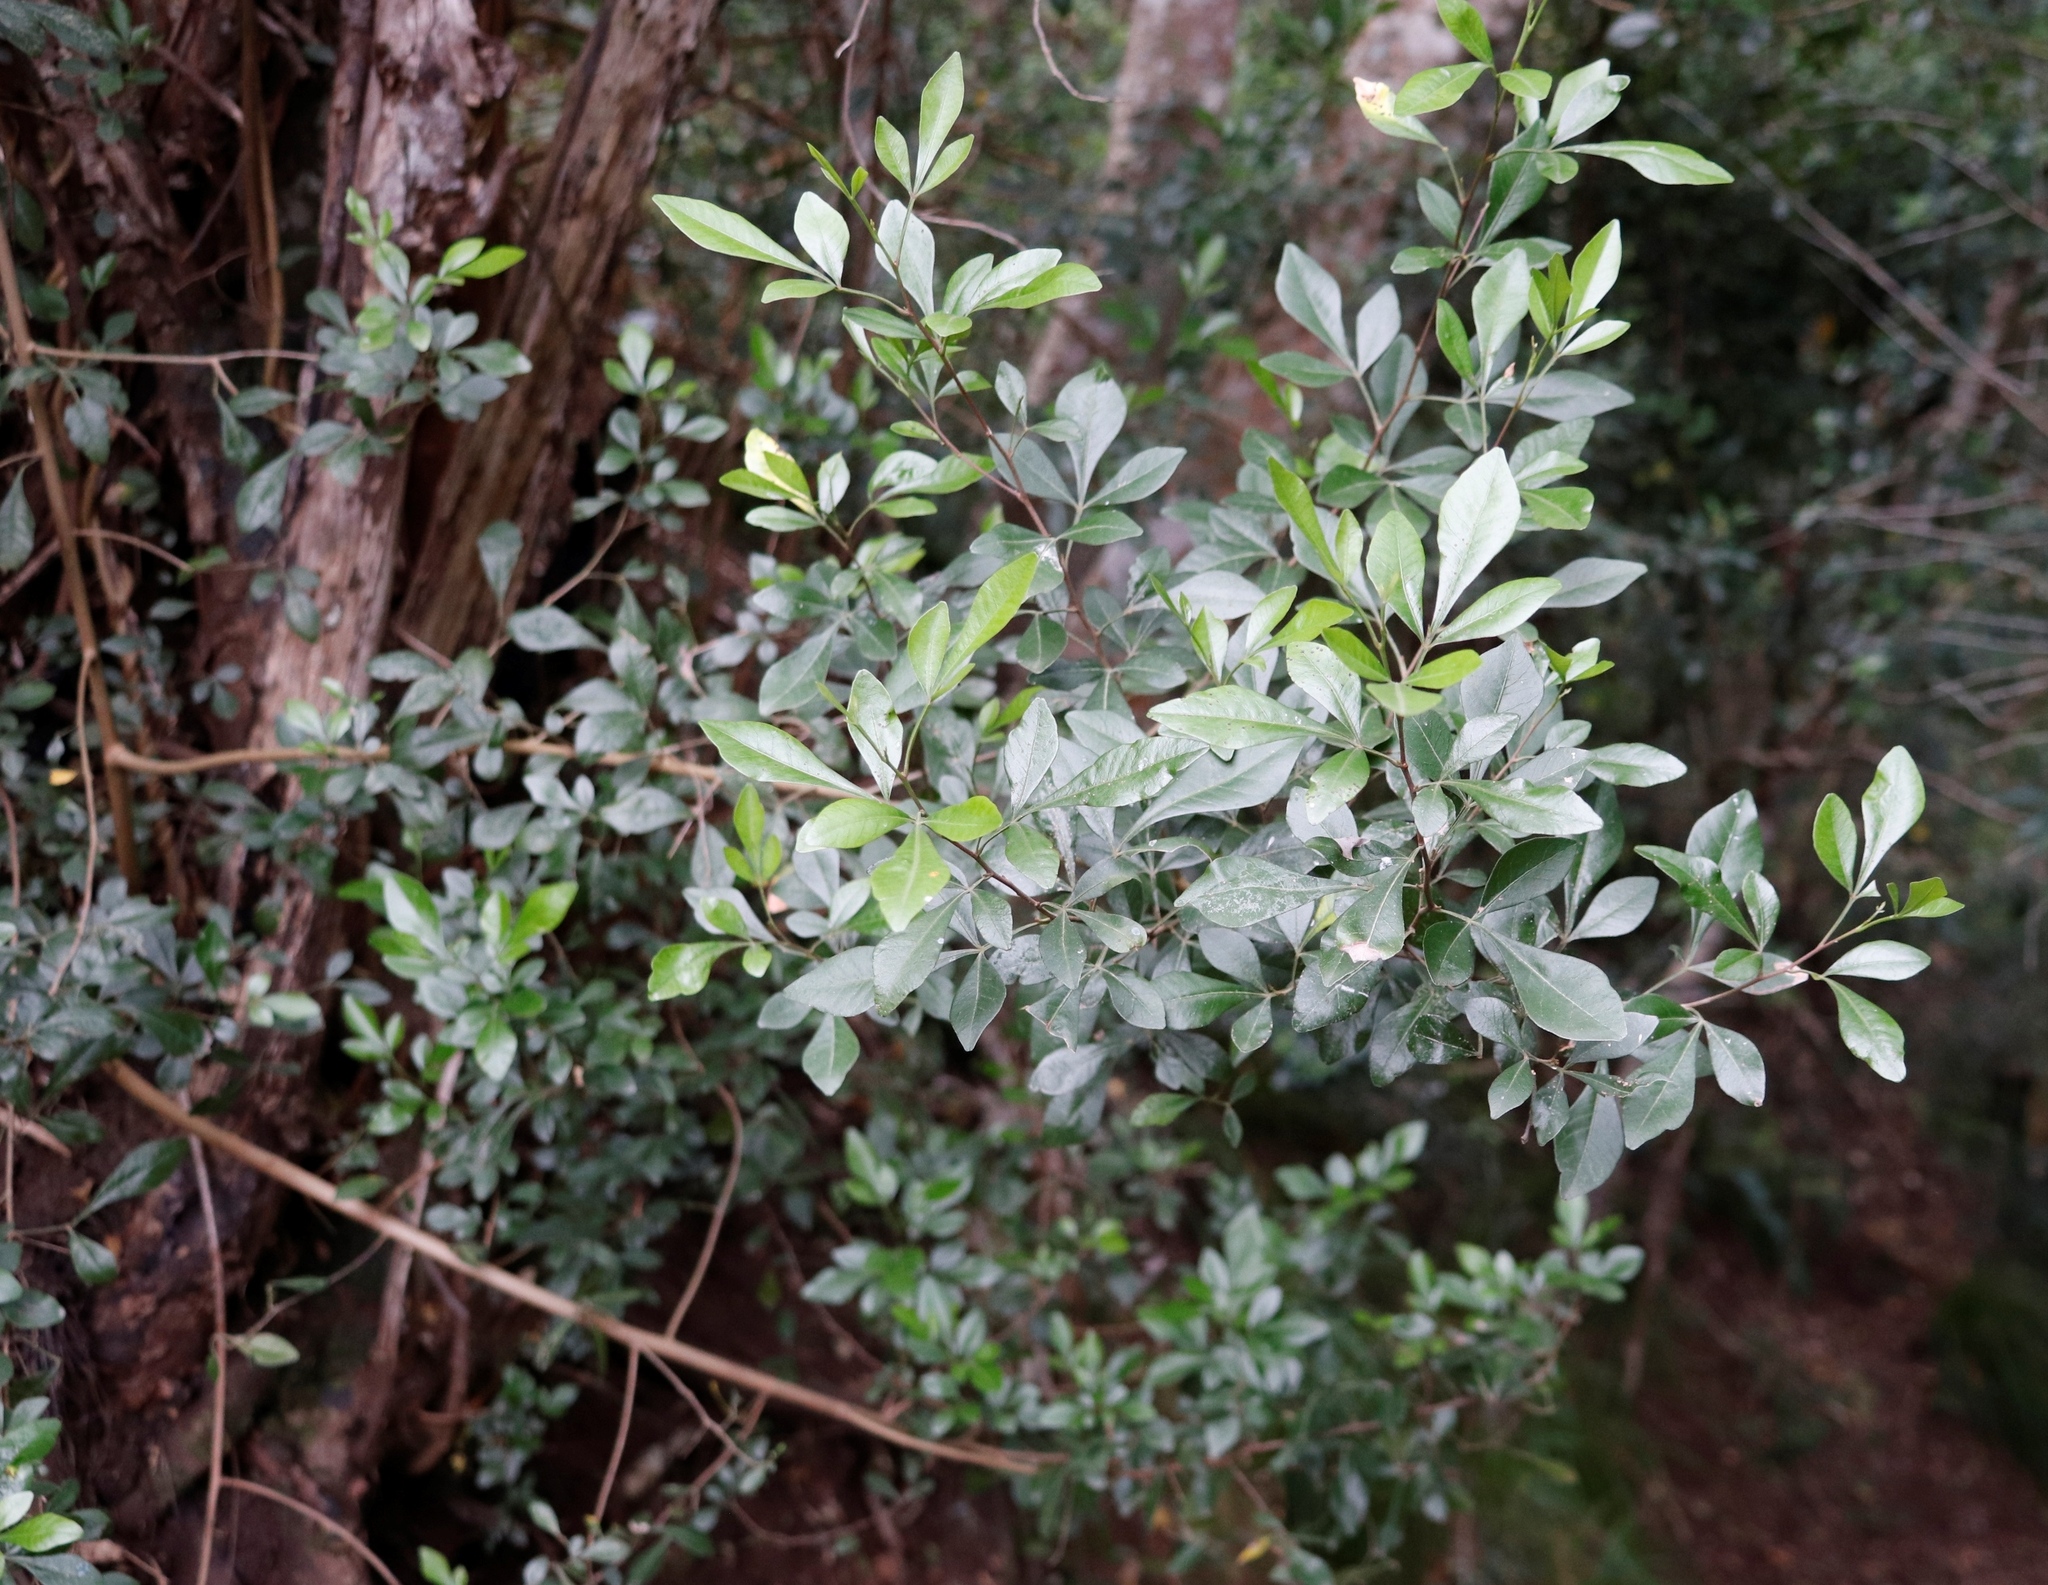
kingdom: Plantae
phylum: Tracheophyta
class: Magnoliopsida
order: Sapindales
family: Anacardiaceae
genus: Searsia
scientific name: Searsia lucida
